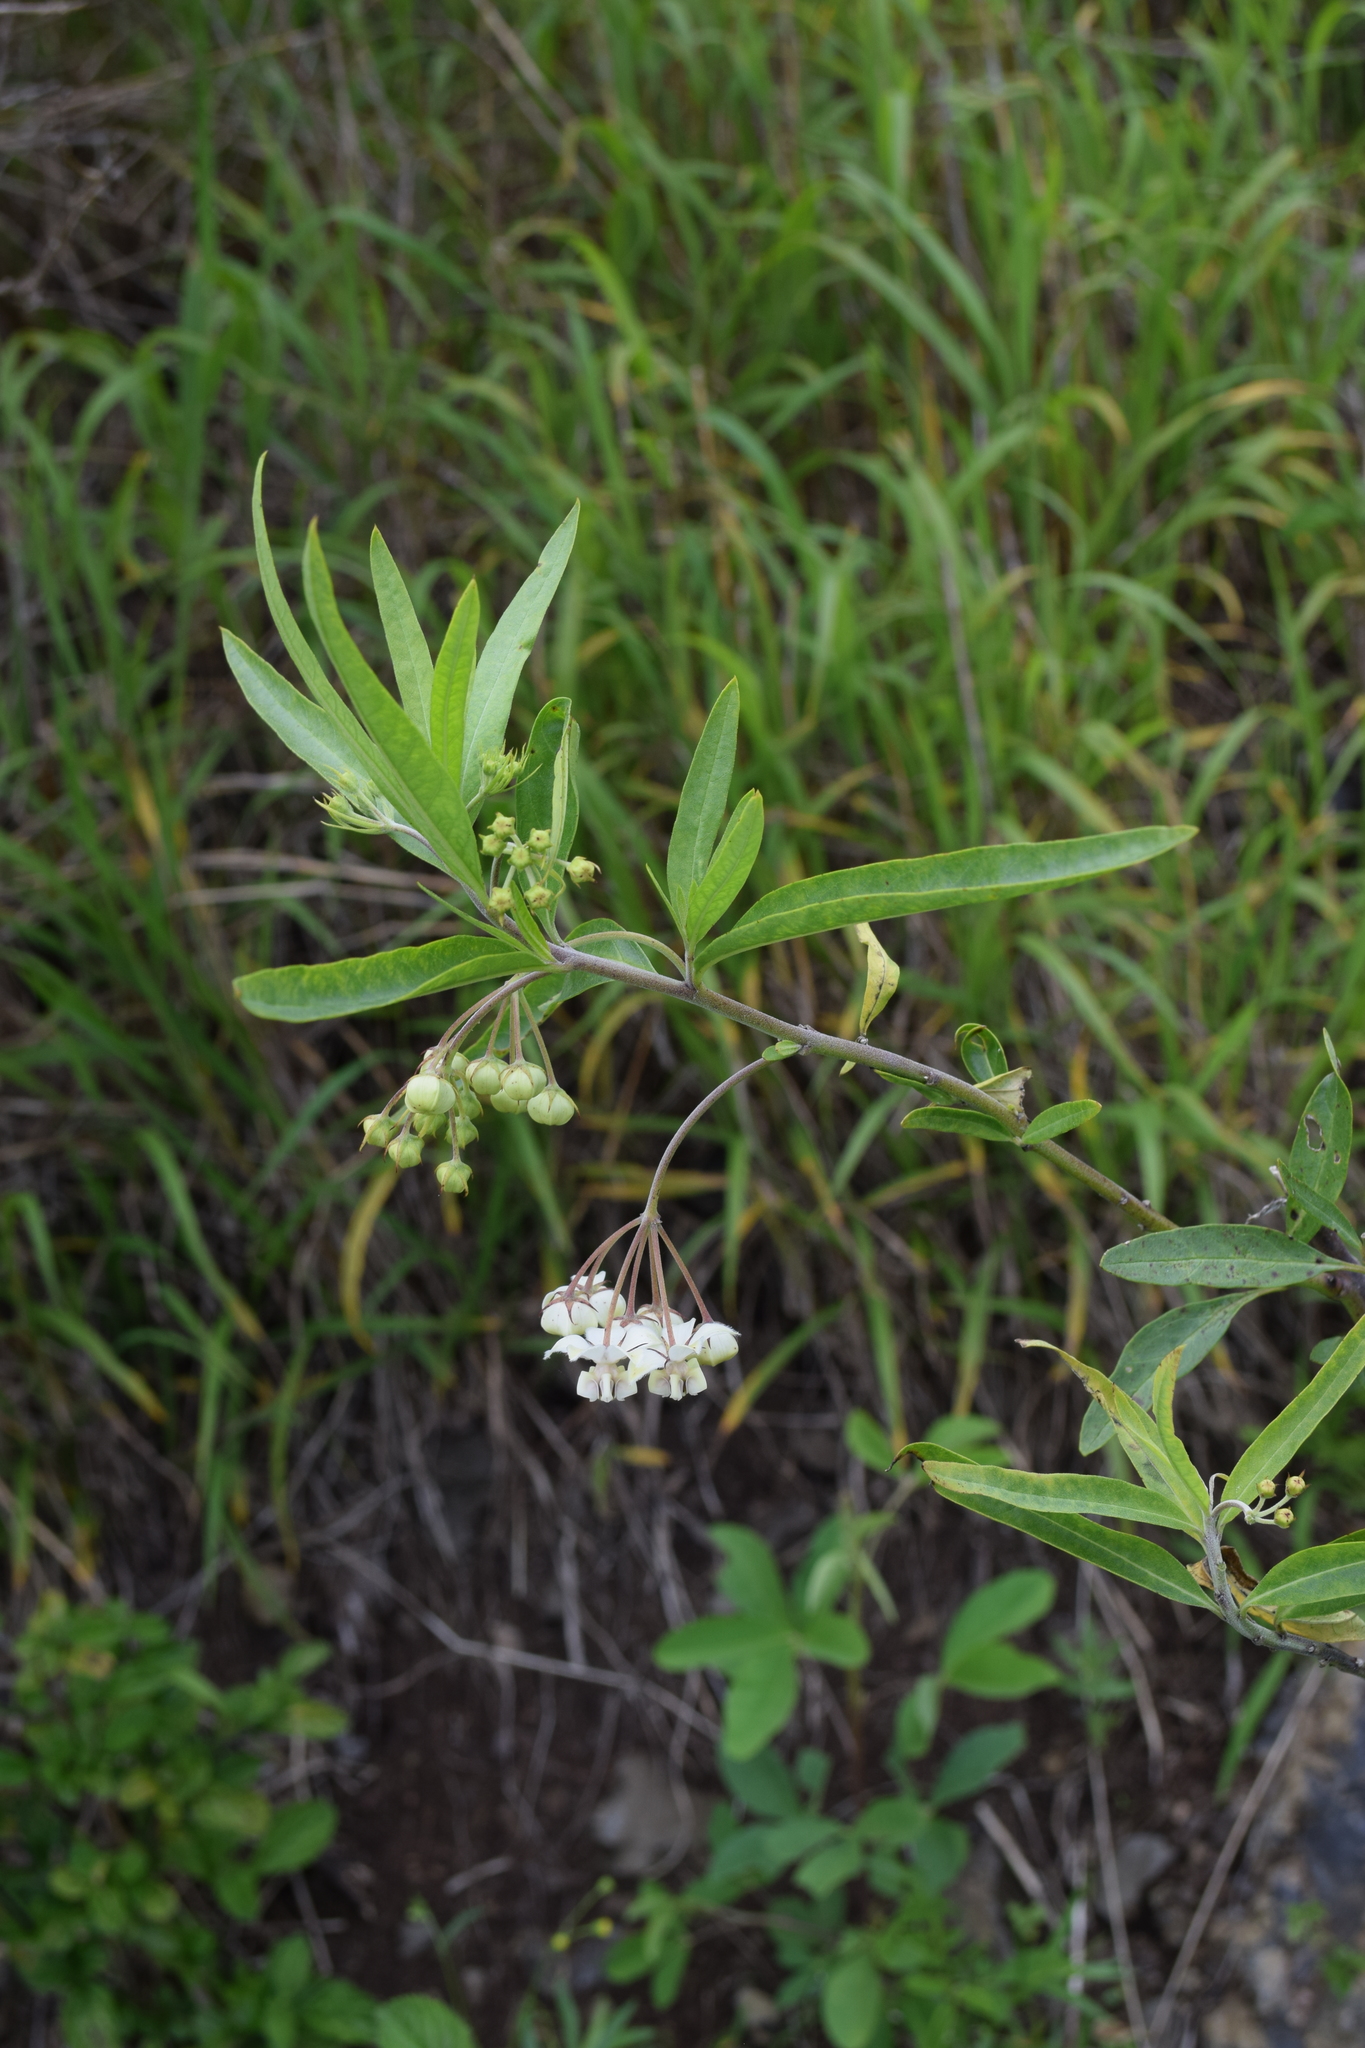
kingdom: Plantae
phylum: Tracheophyta
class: Magnoliopsida
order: Gentianales
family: Apocynaceae
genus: Gomphocarpus
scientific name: Gomphocarpus physocarpus
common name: Balloon cotton bush
